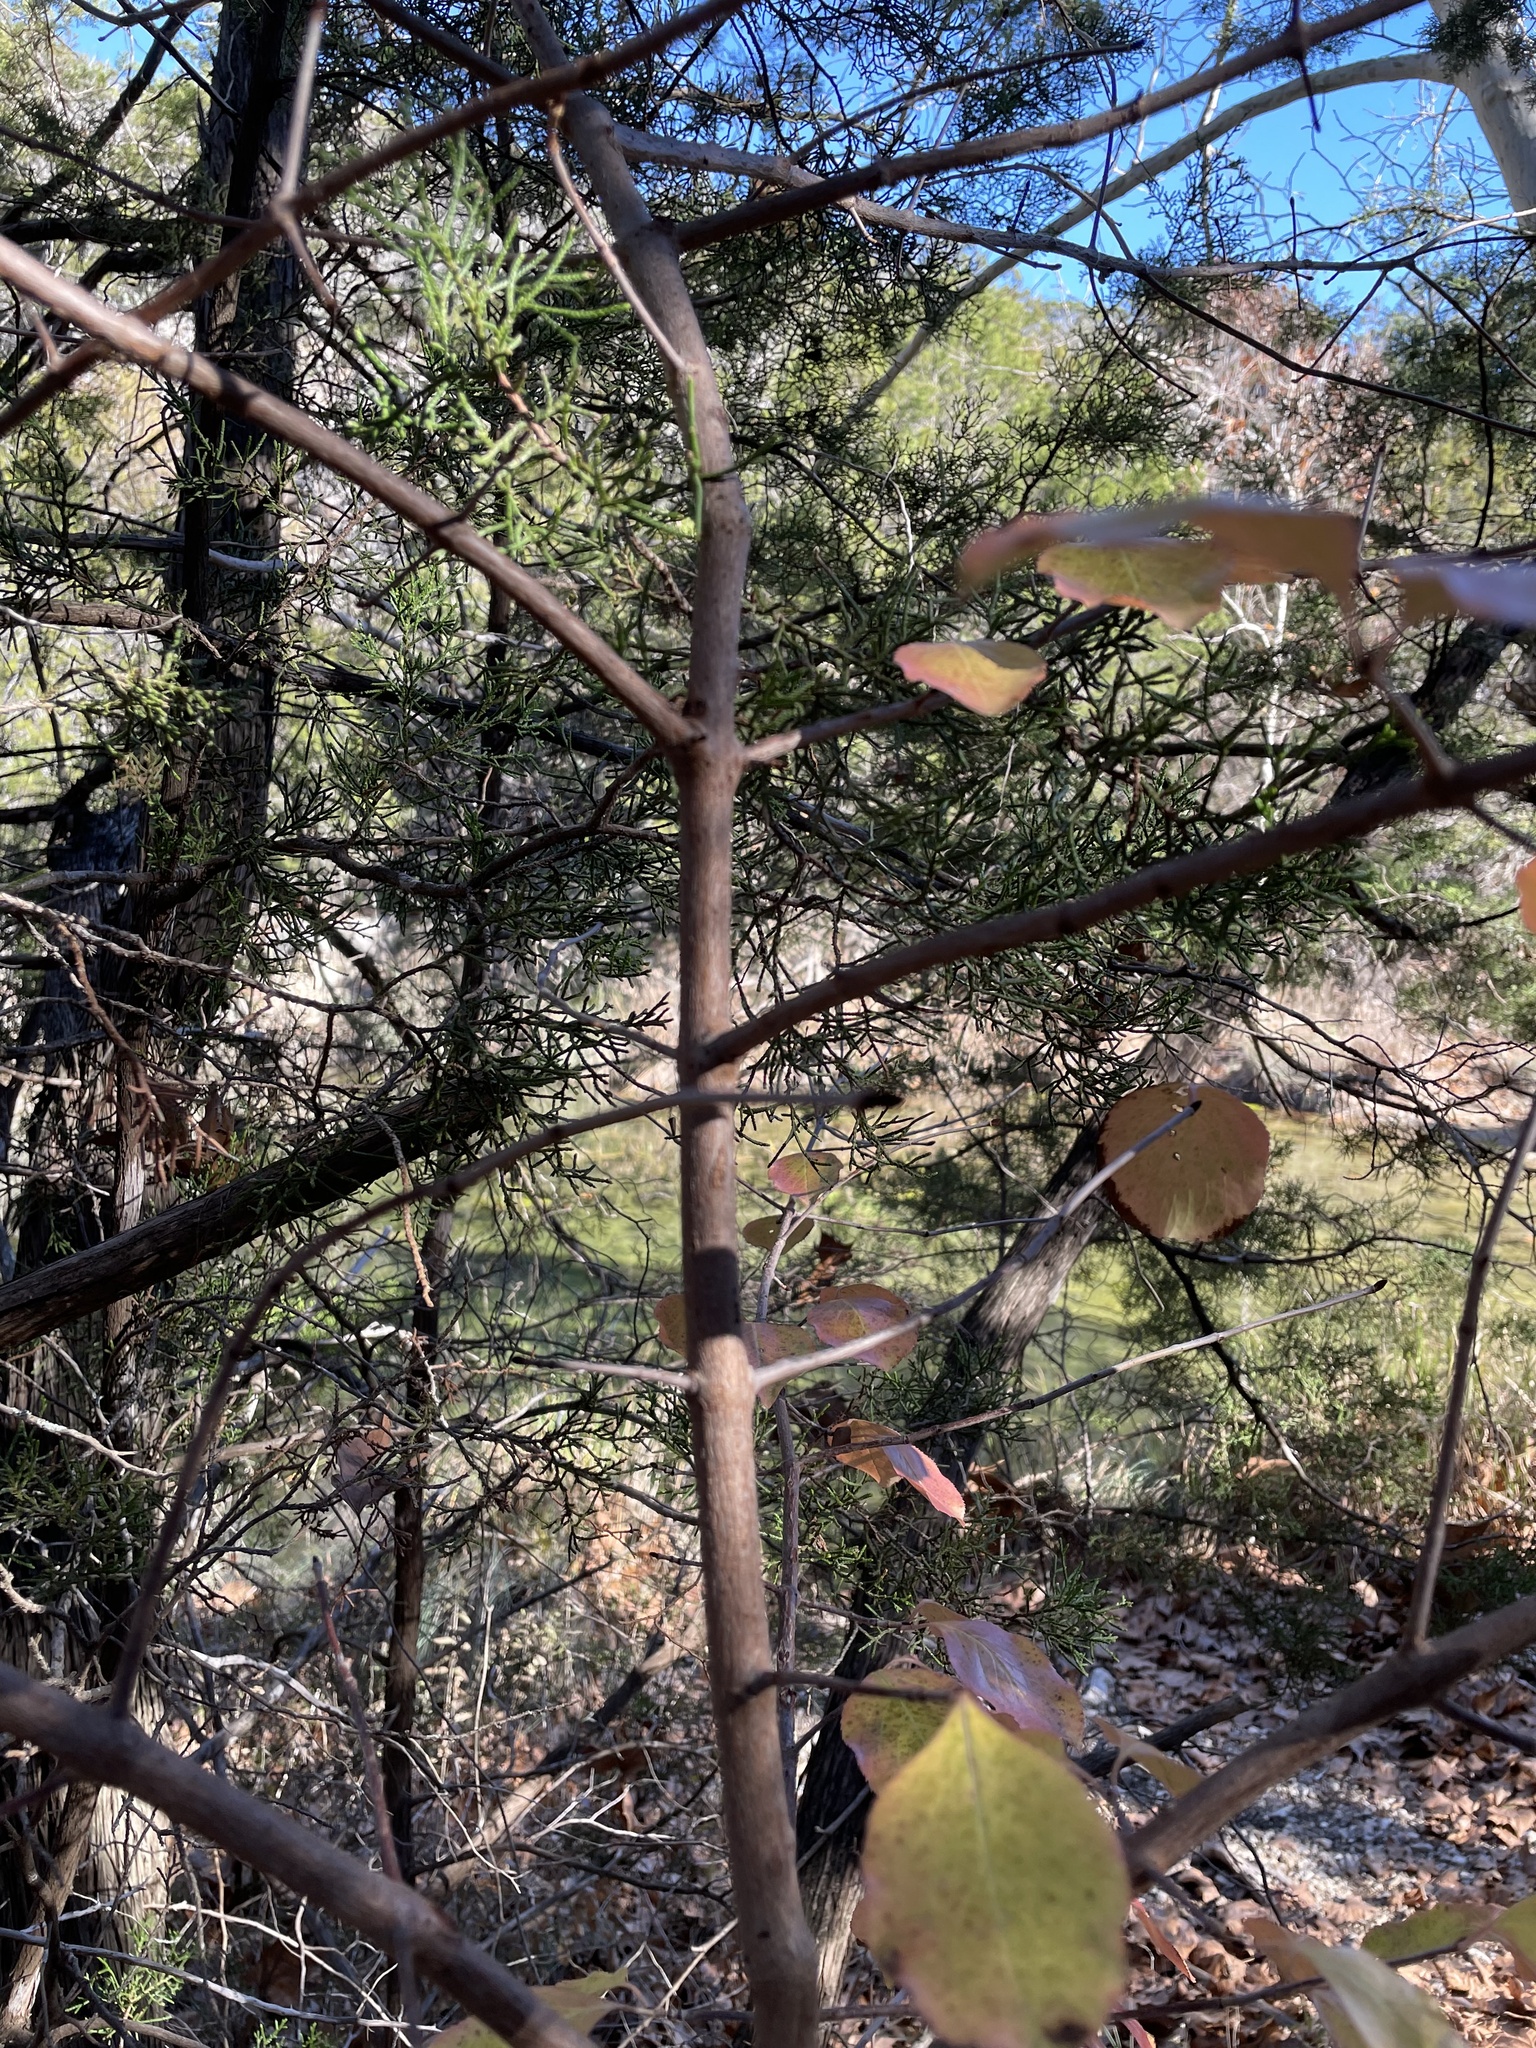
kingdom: Plantae
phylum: Tracheophyta
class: Magnoliopsida
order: Dipsacales
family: Viburnaceae
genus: Viburnum
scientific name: Viburnum rufidulum
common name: Blue haw
